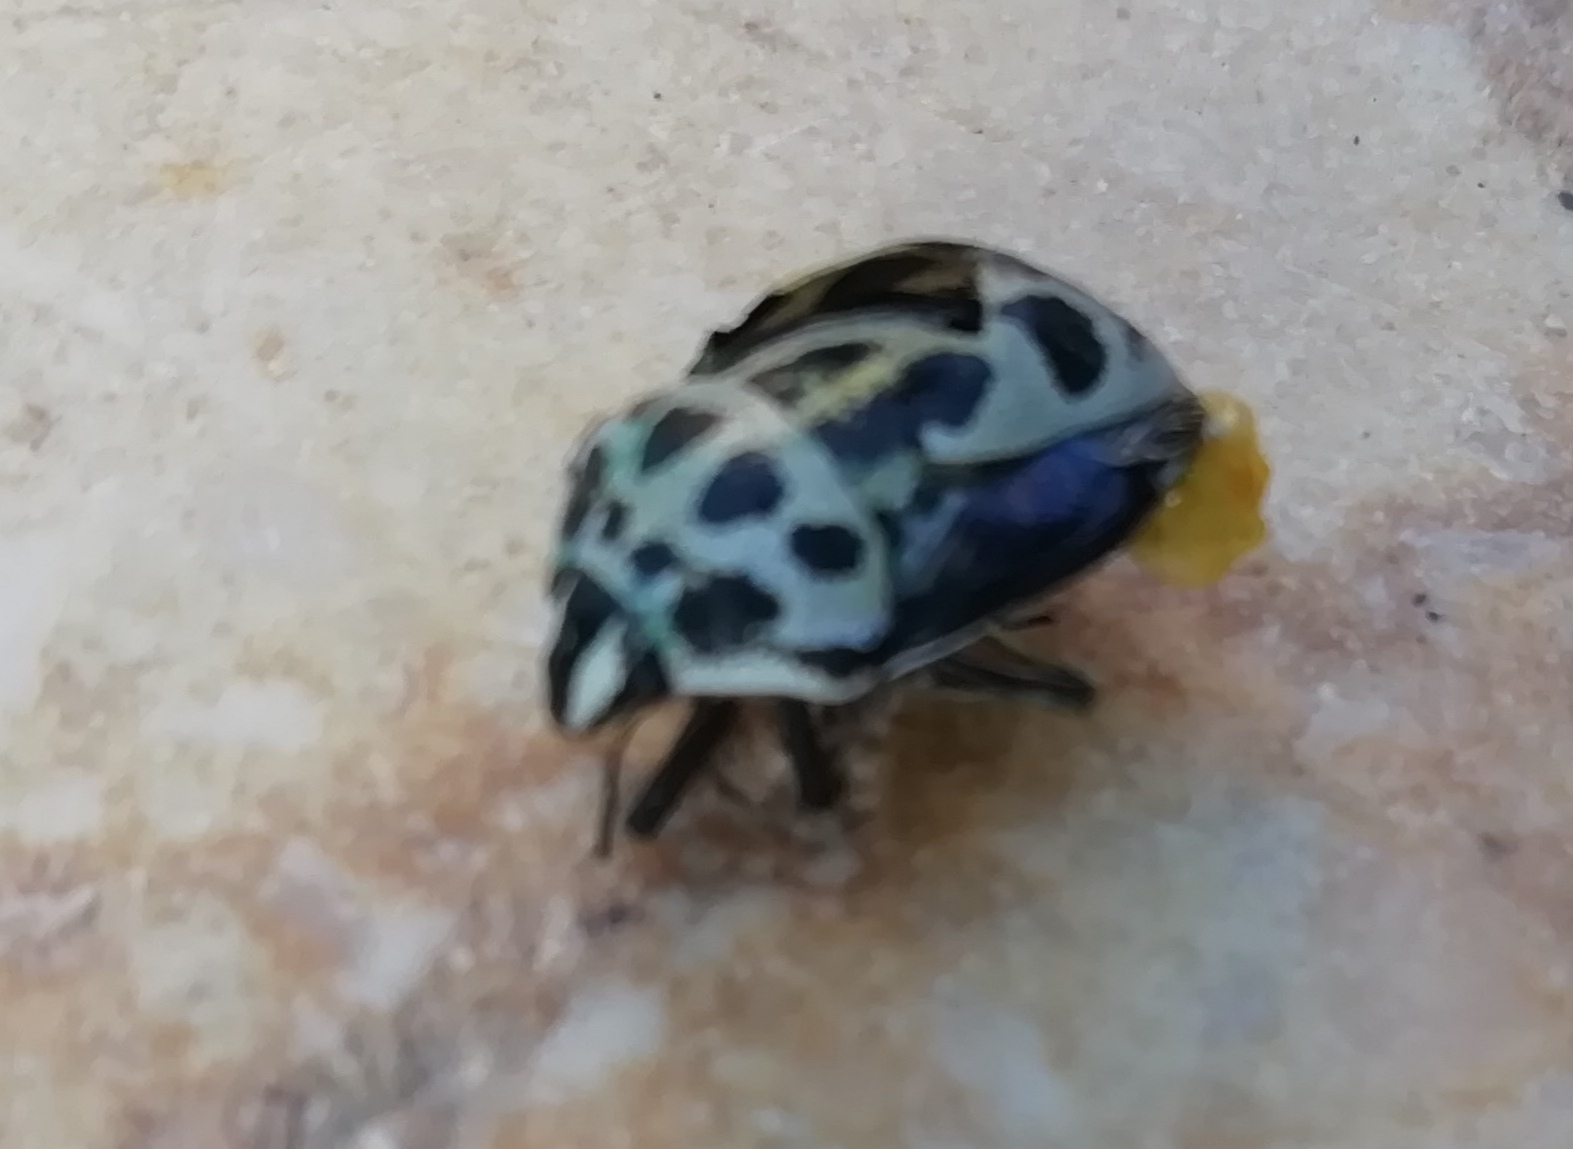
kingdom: Animalia
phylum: Arthropoda
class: Insecta
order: Hemiptera
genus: Deroplax
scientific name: Deroplax silphoides
